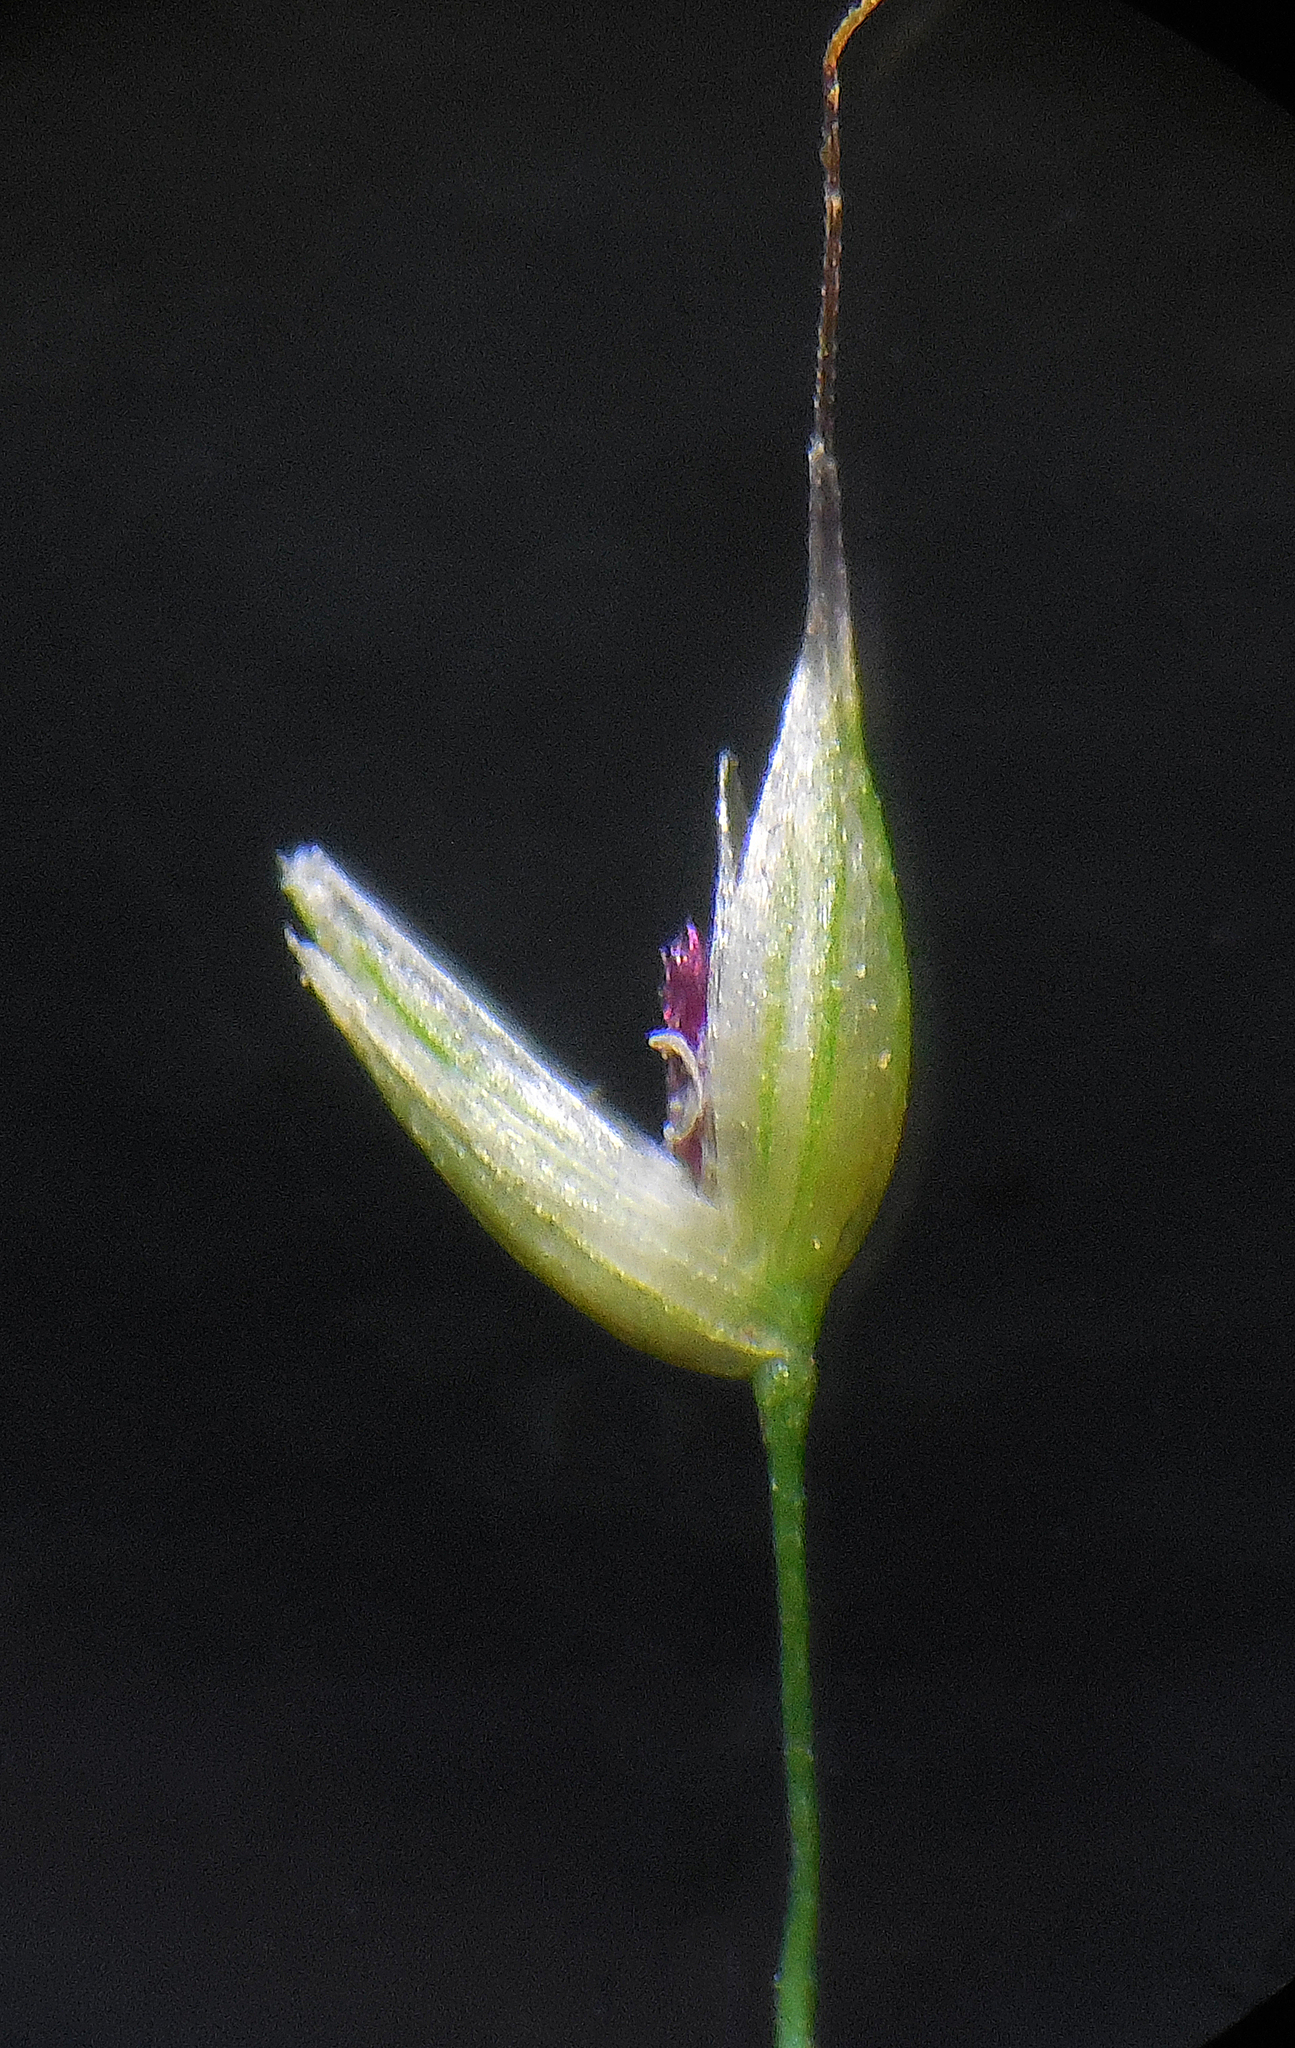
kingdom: Plantae
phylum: Tracheophyta
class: Liliopsida
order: Poales
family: Poaceae
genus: Arundinella
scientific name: Arundinella pumila
